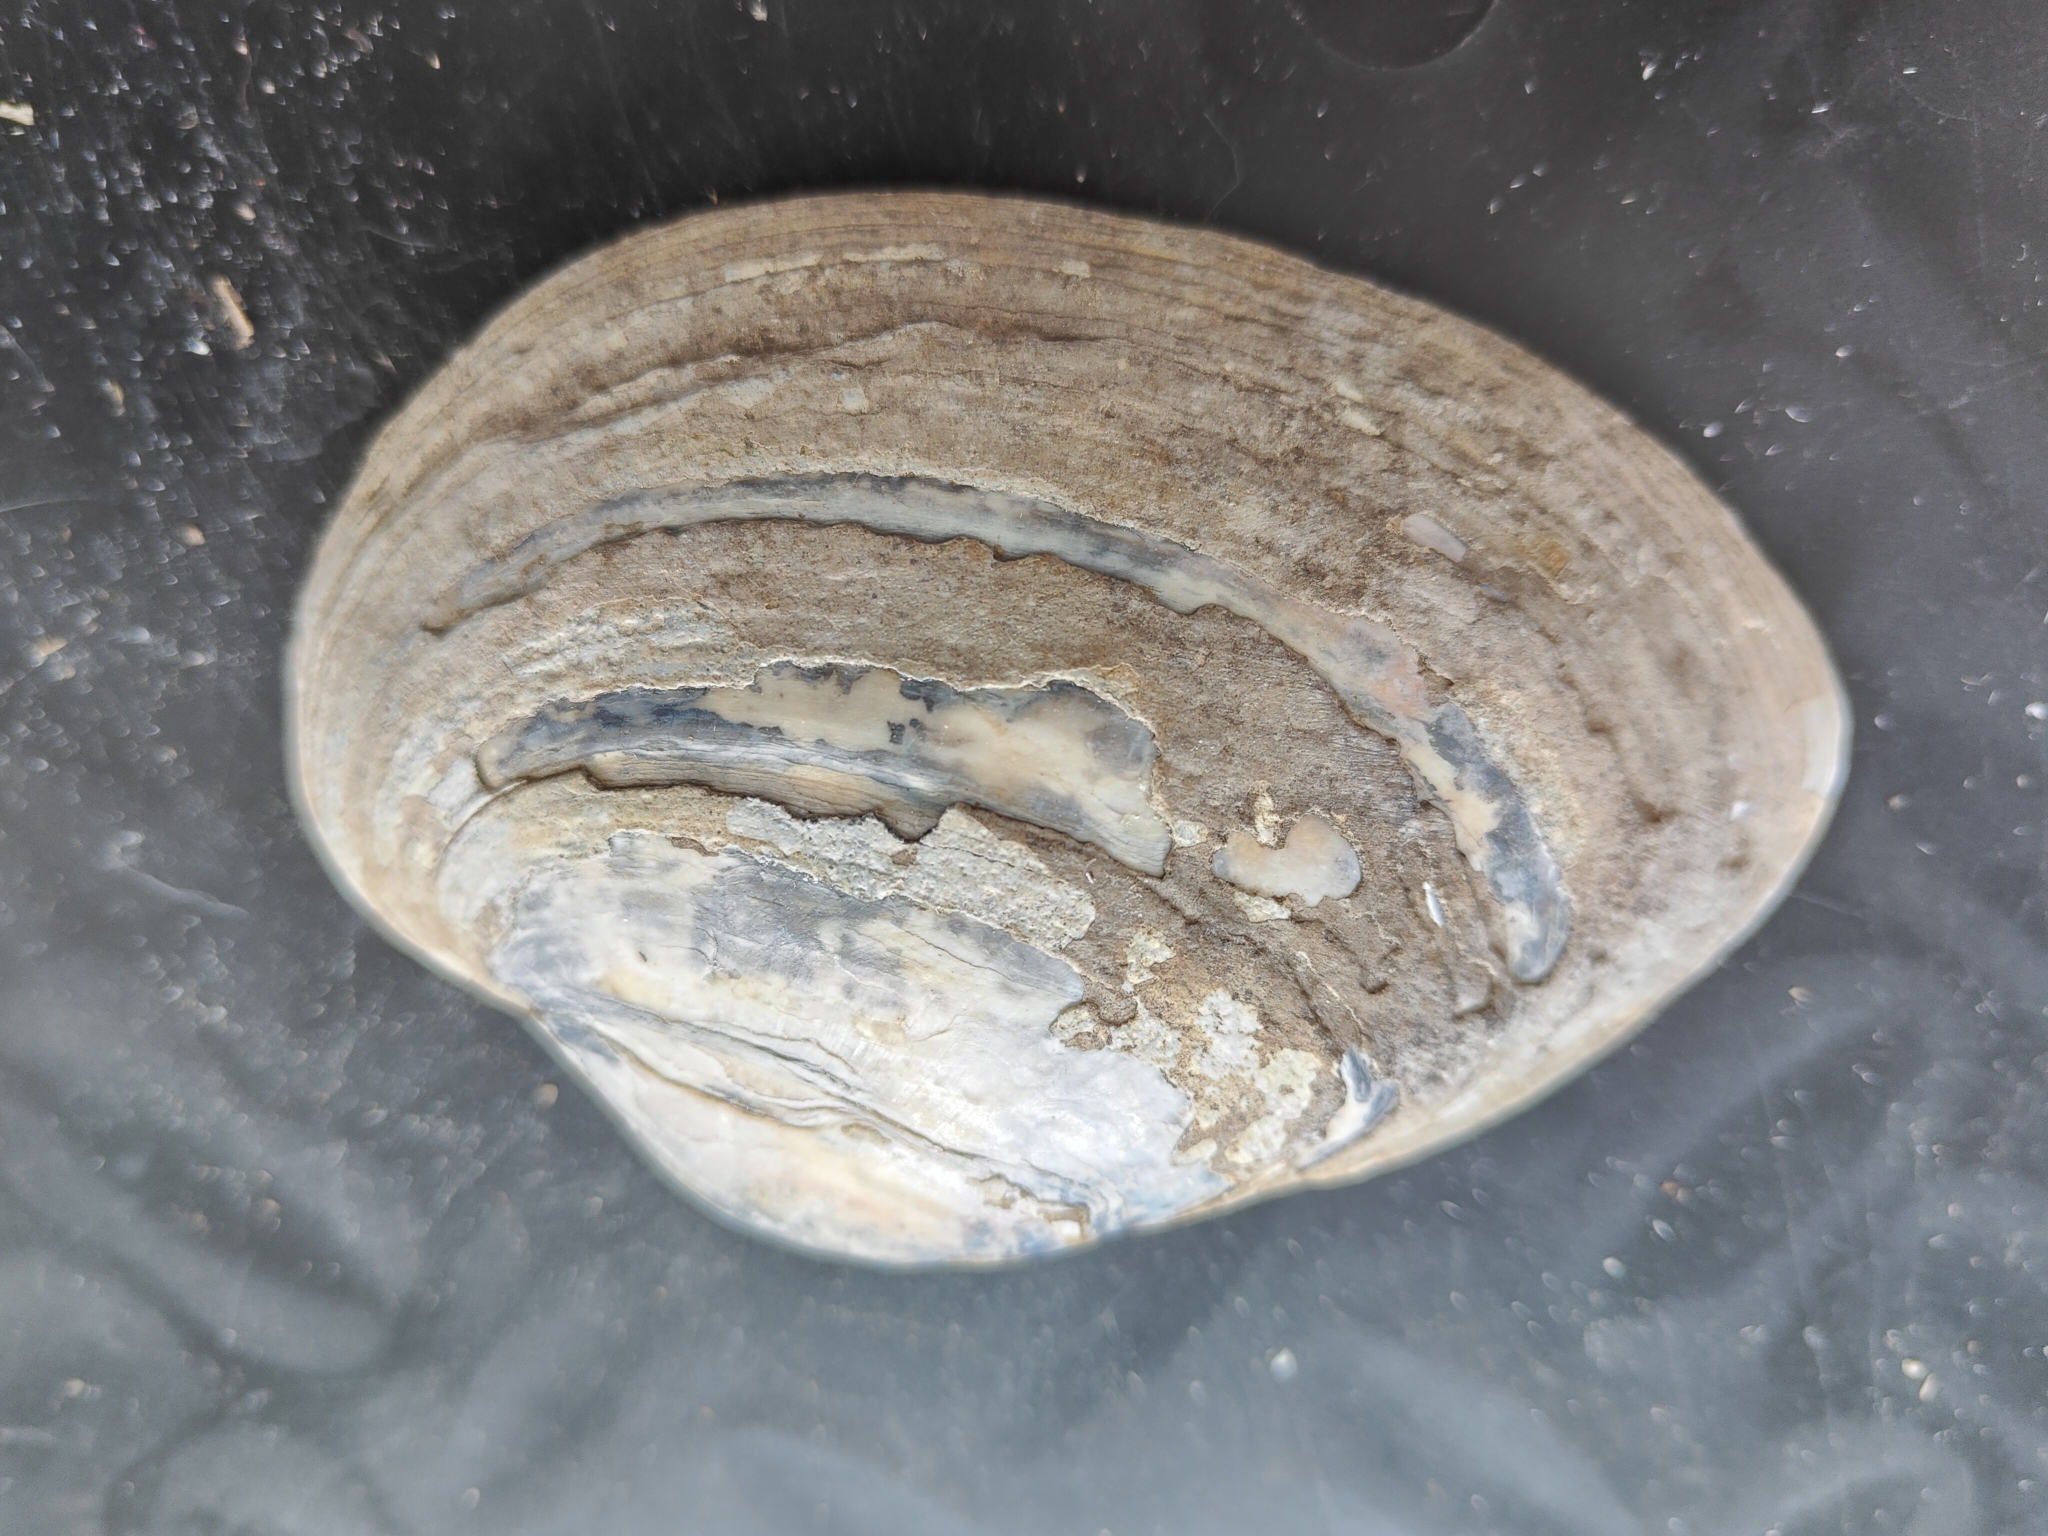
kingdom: Animalia
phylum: Mollusca
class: Bivalvia
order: Unionida
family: Unionidae
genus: Lampsilis
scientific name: Lampsilis cardium
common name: Plain pocketbook
